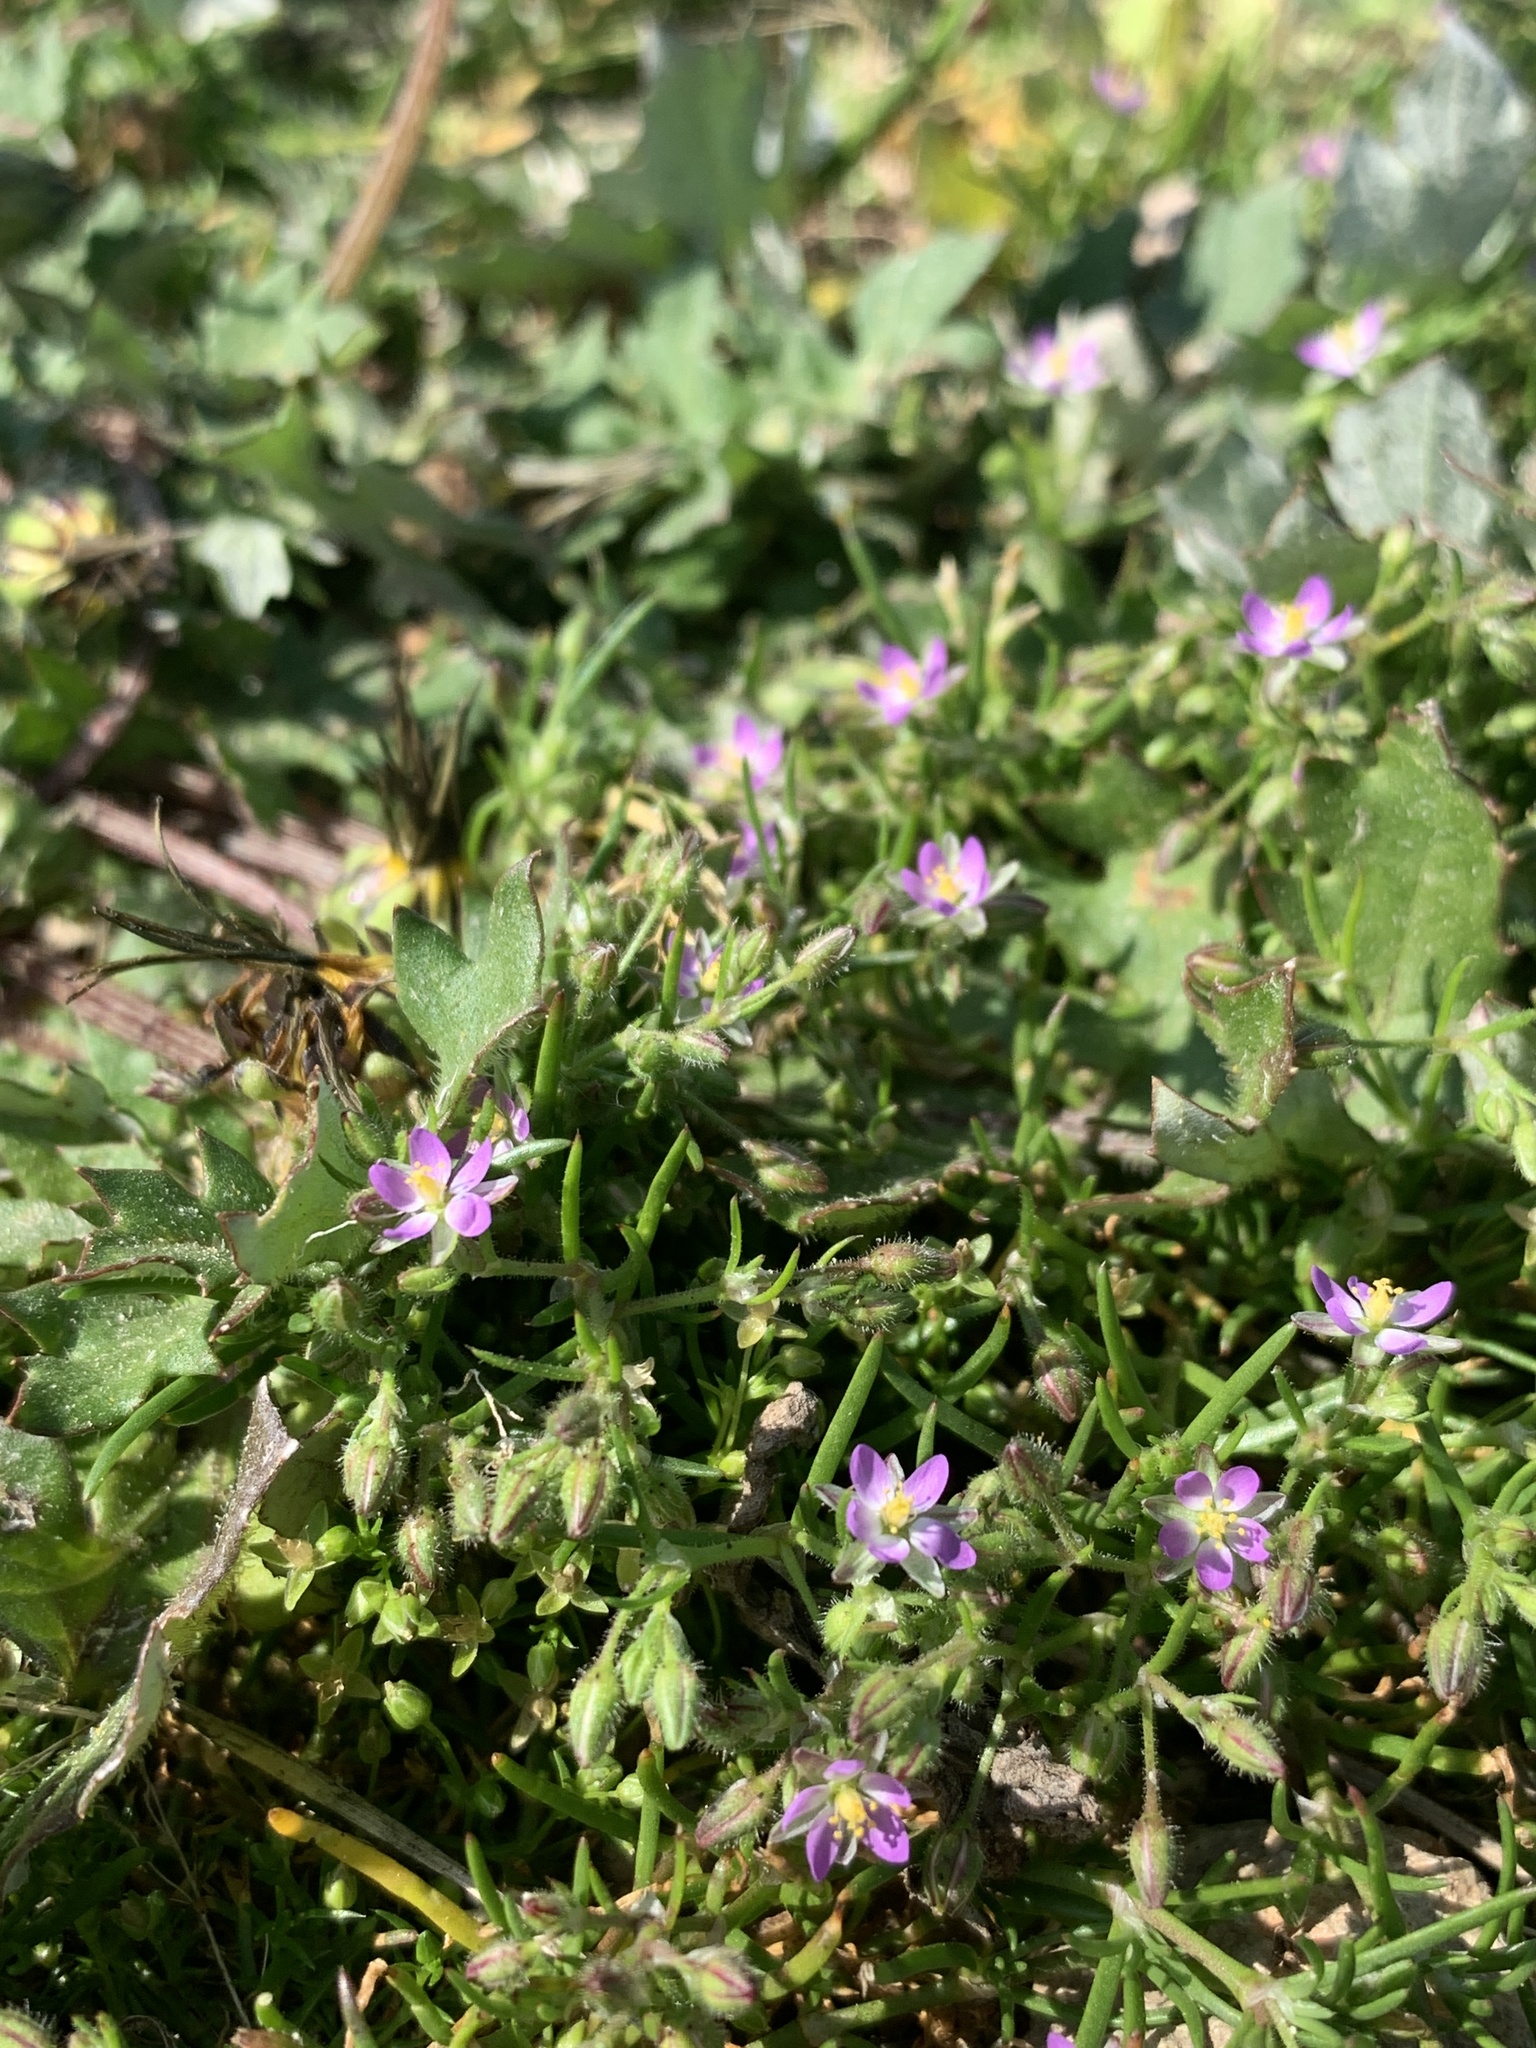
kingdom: Plantae
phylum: Tracheophyta
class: Magnoliopsida
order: Caryophyllales
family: Caryophyllaceae
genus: Spergularia
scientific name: Spergularia rubra
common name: Red sand-spurrey
